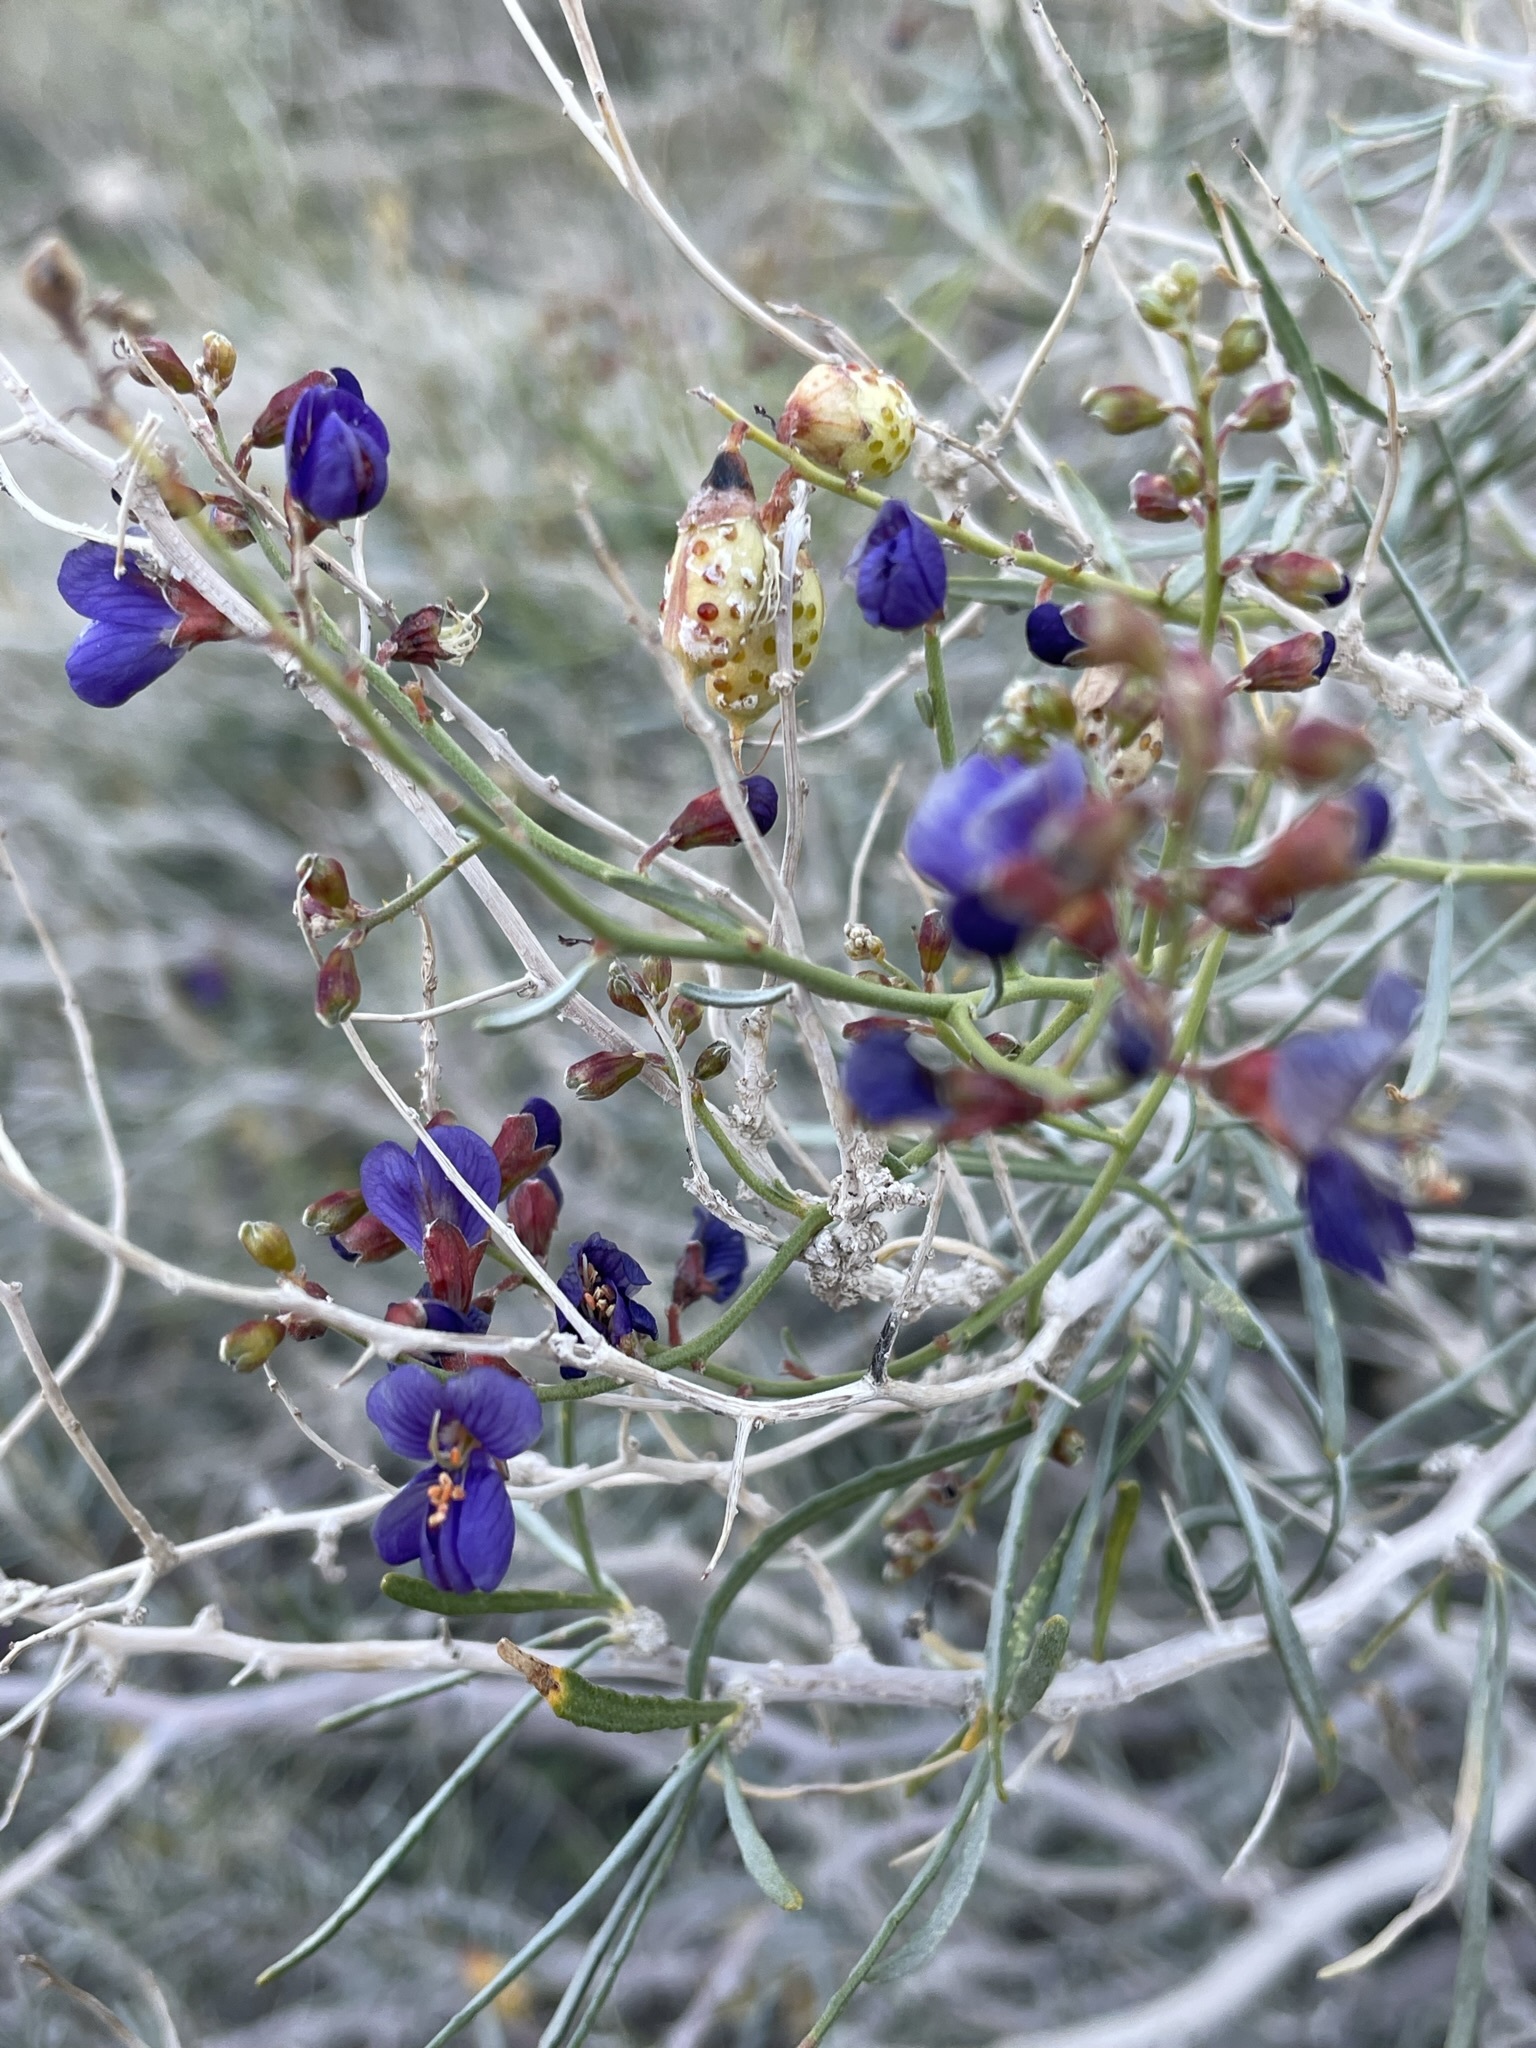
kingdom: Plantae
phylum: Tracheophyta
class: Magnoliopsida
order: Fabales
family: Fabaceae
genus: Psorothamnus
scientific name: Psorothamnus schottii
